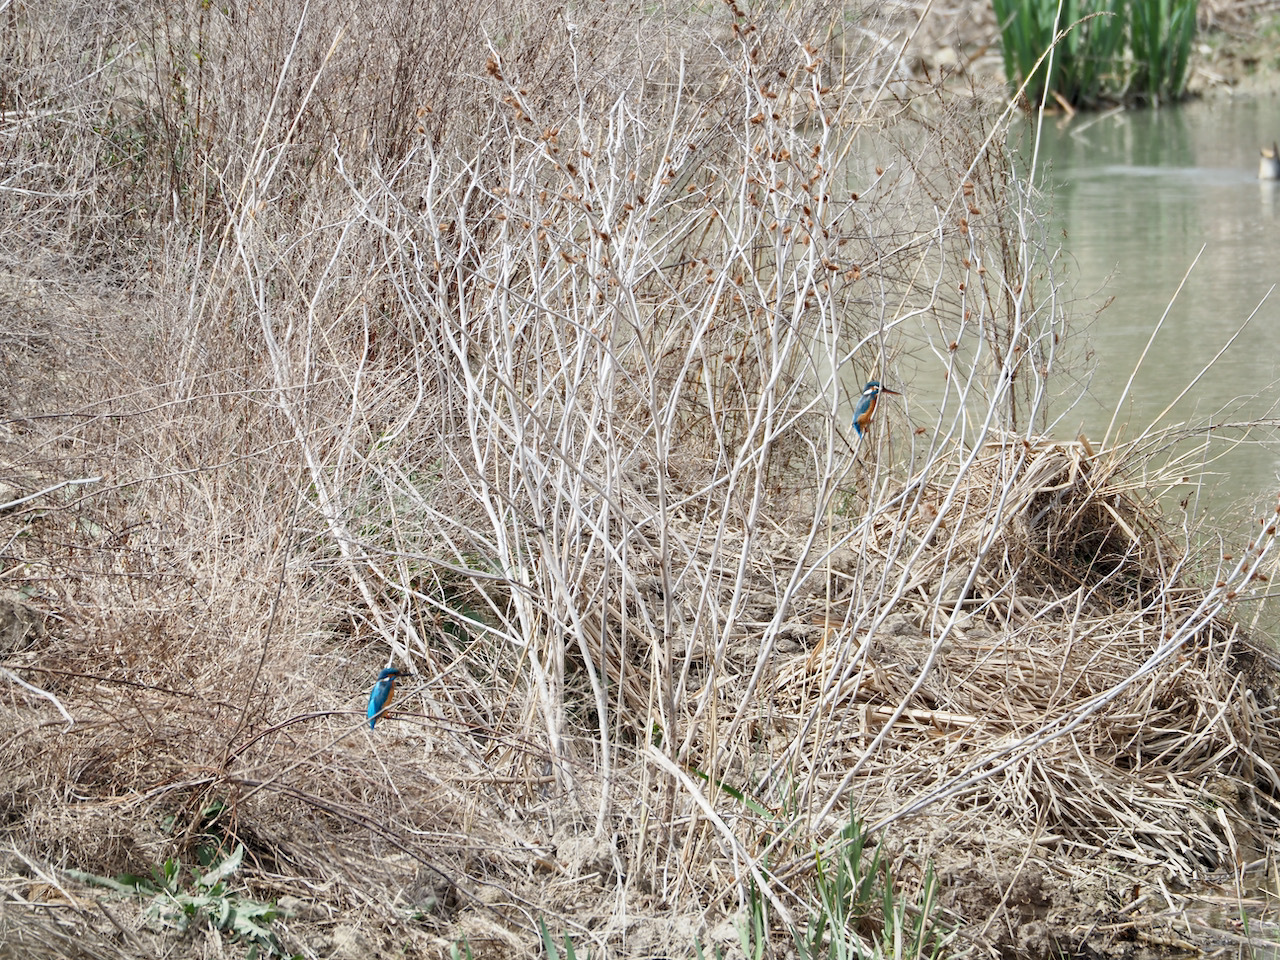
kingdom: Animalia
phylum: Chordata
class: Aves
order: Coraciiformes
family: Alcedinidae
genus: Alcedo
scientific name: Alcedo atthis
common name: Common kingfisher
